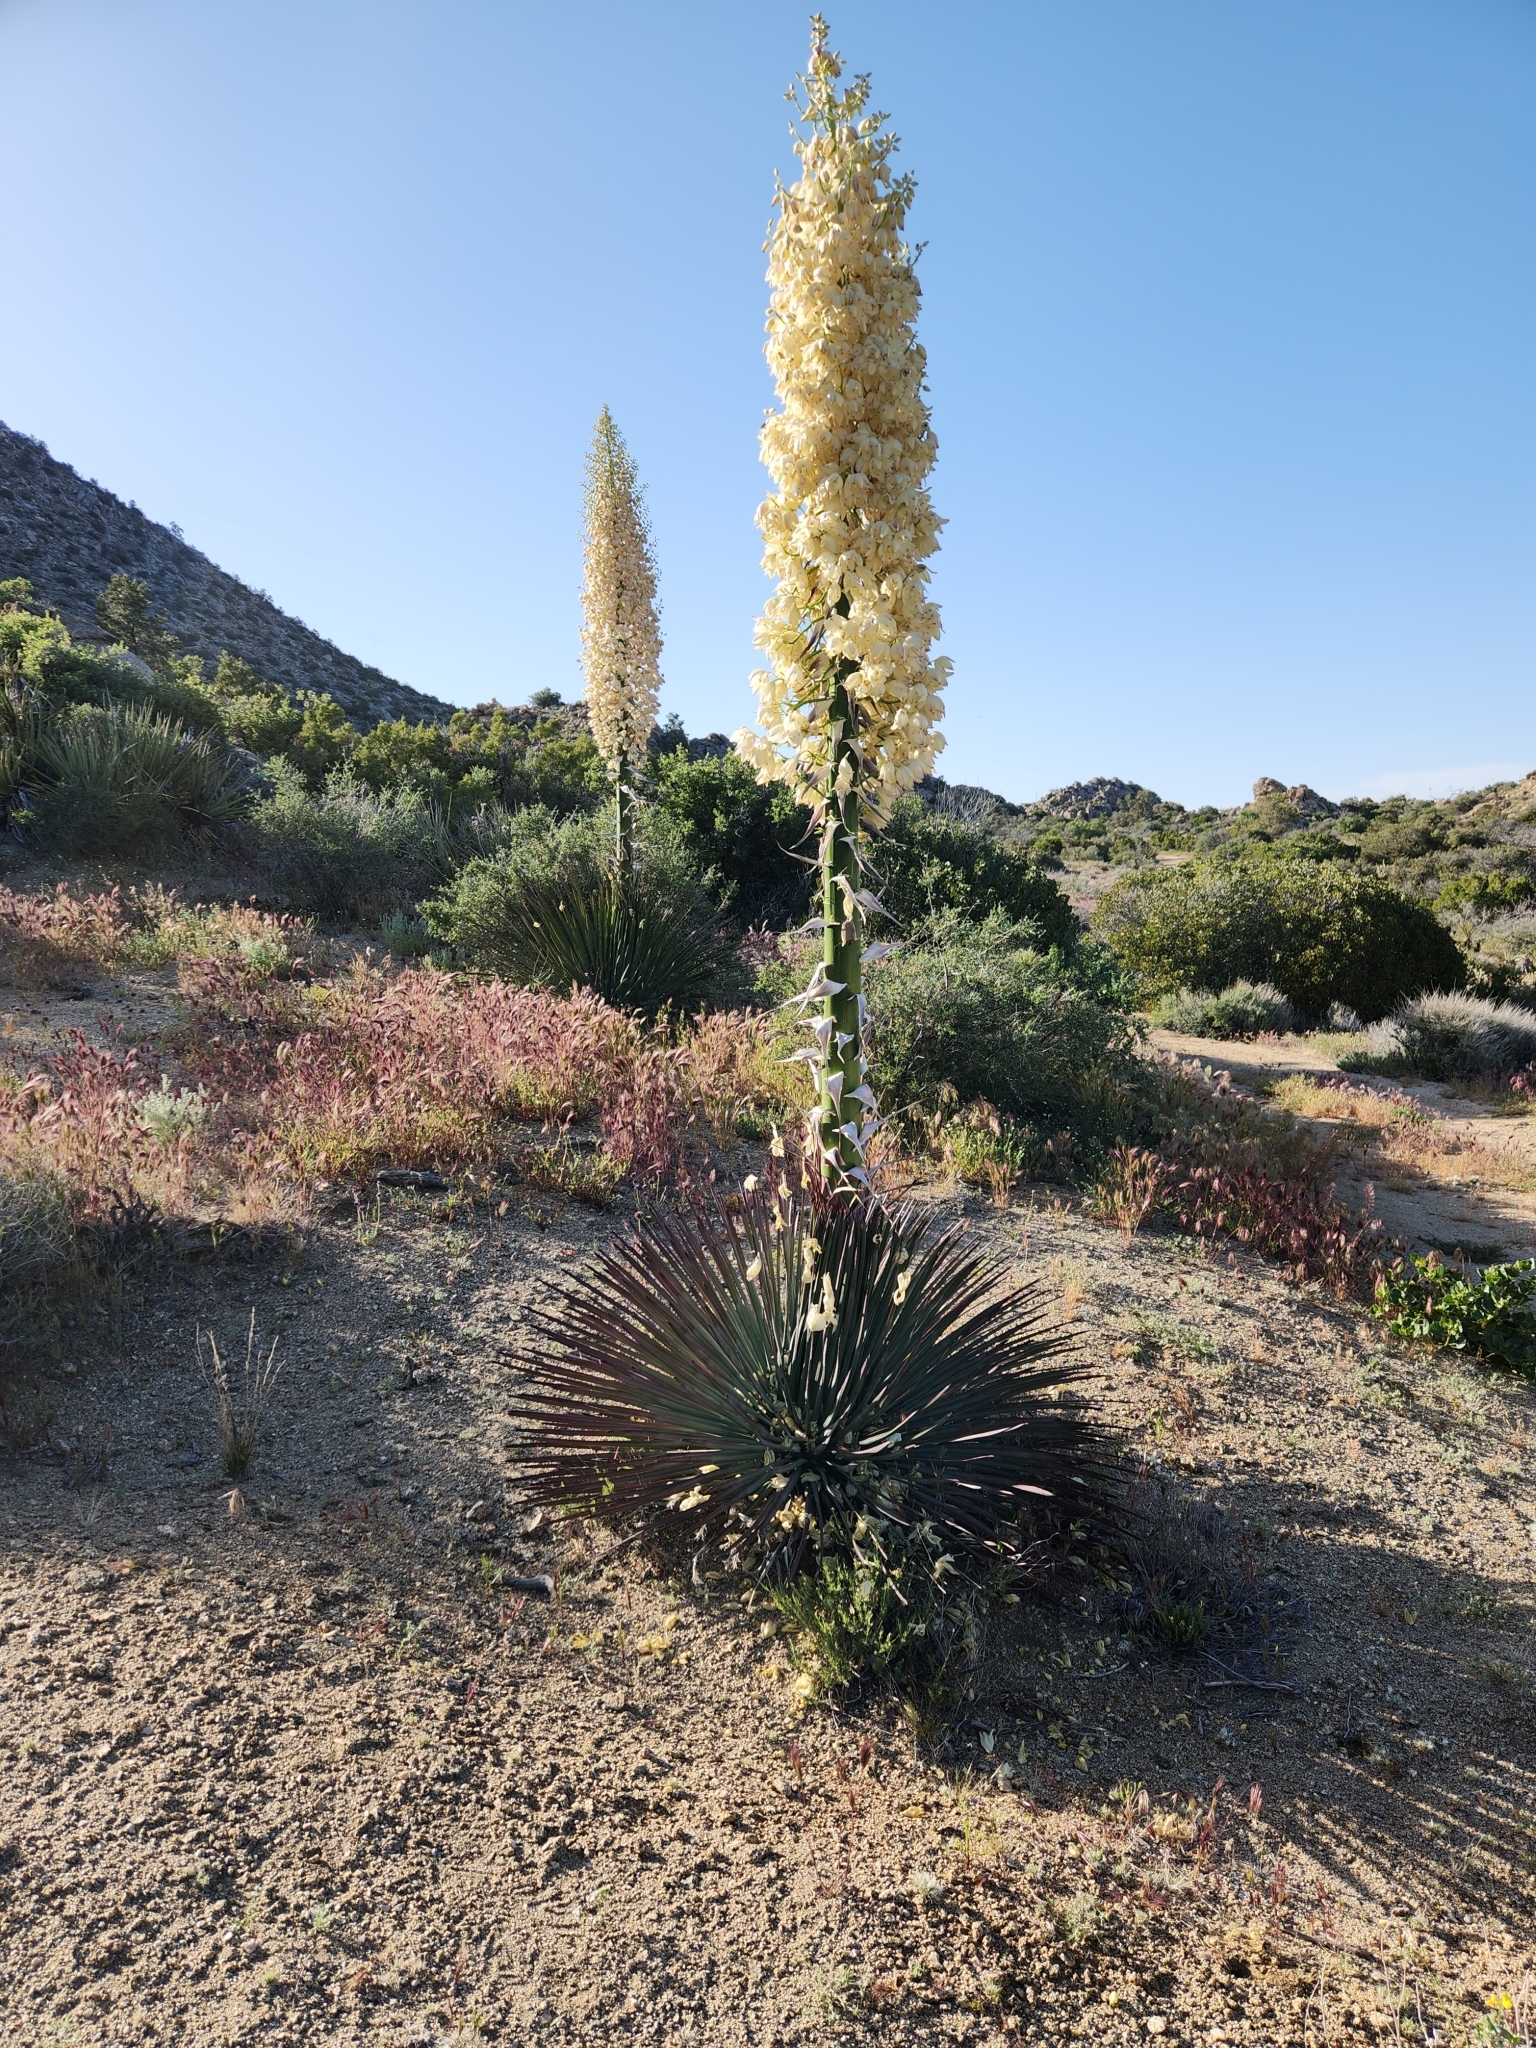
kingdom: Plantae
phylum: Tracheophyta
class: Liliopsida
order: Asparagales
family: Asparagaceae
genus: Hesperoyucca
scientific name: Hesperoyucca whipplei
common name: Our lord's-candle
